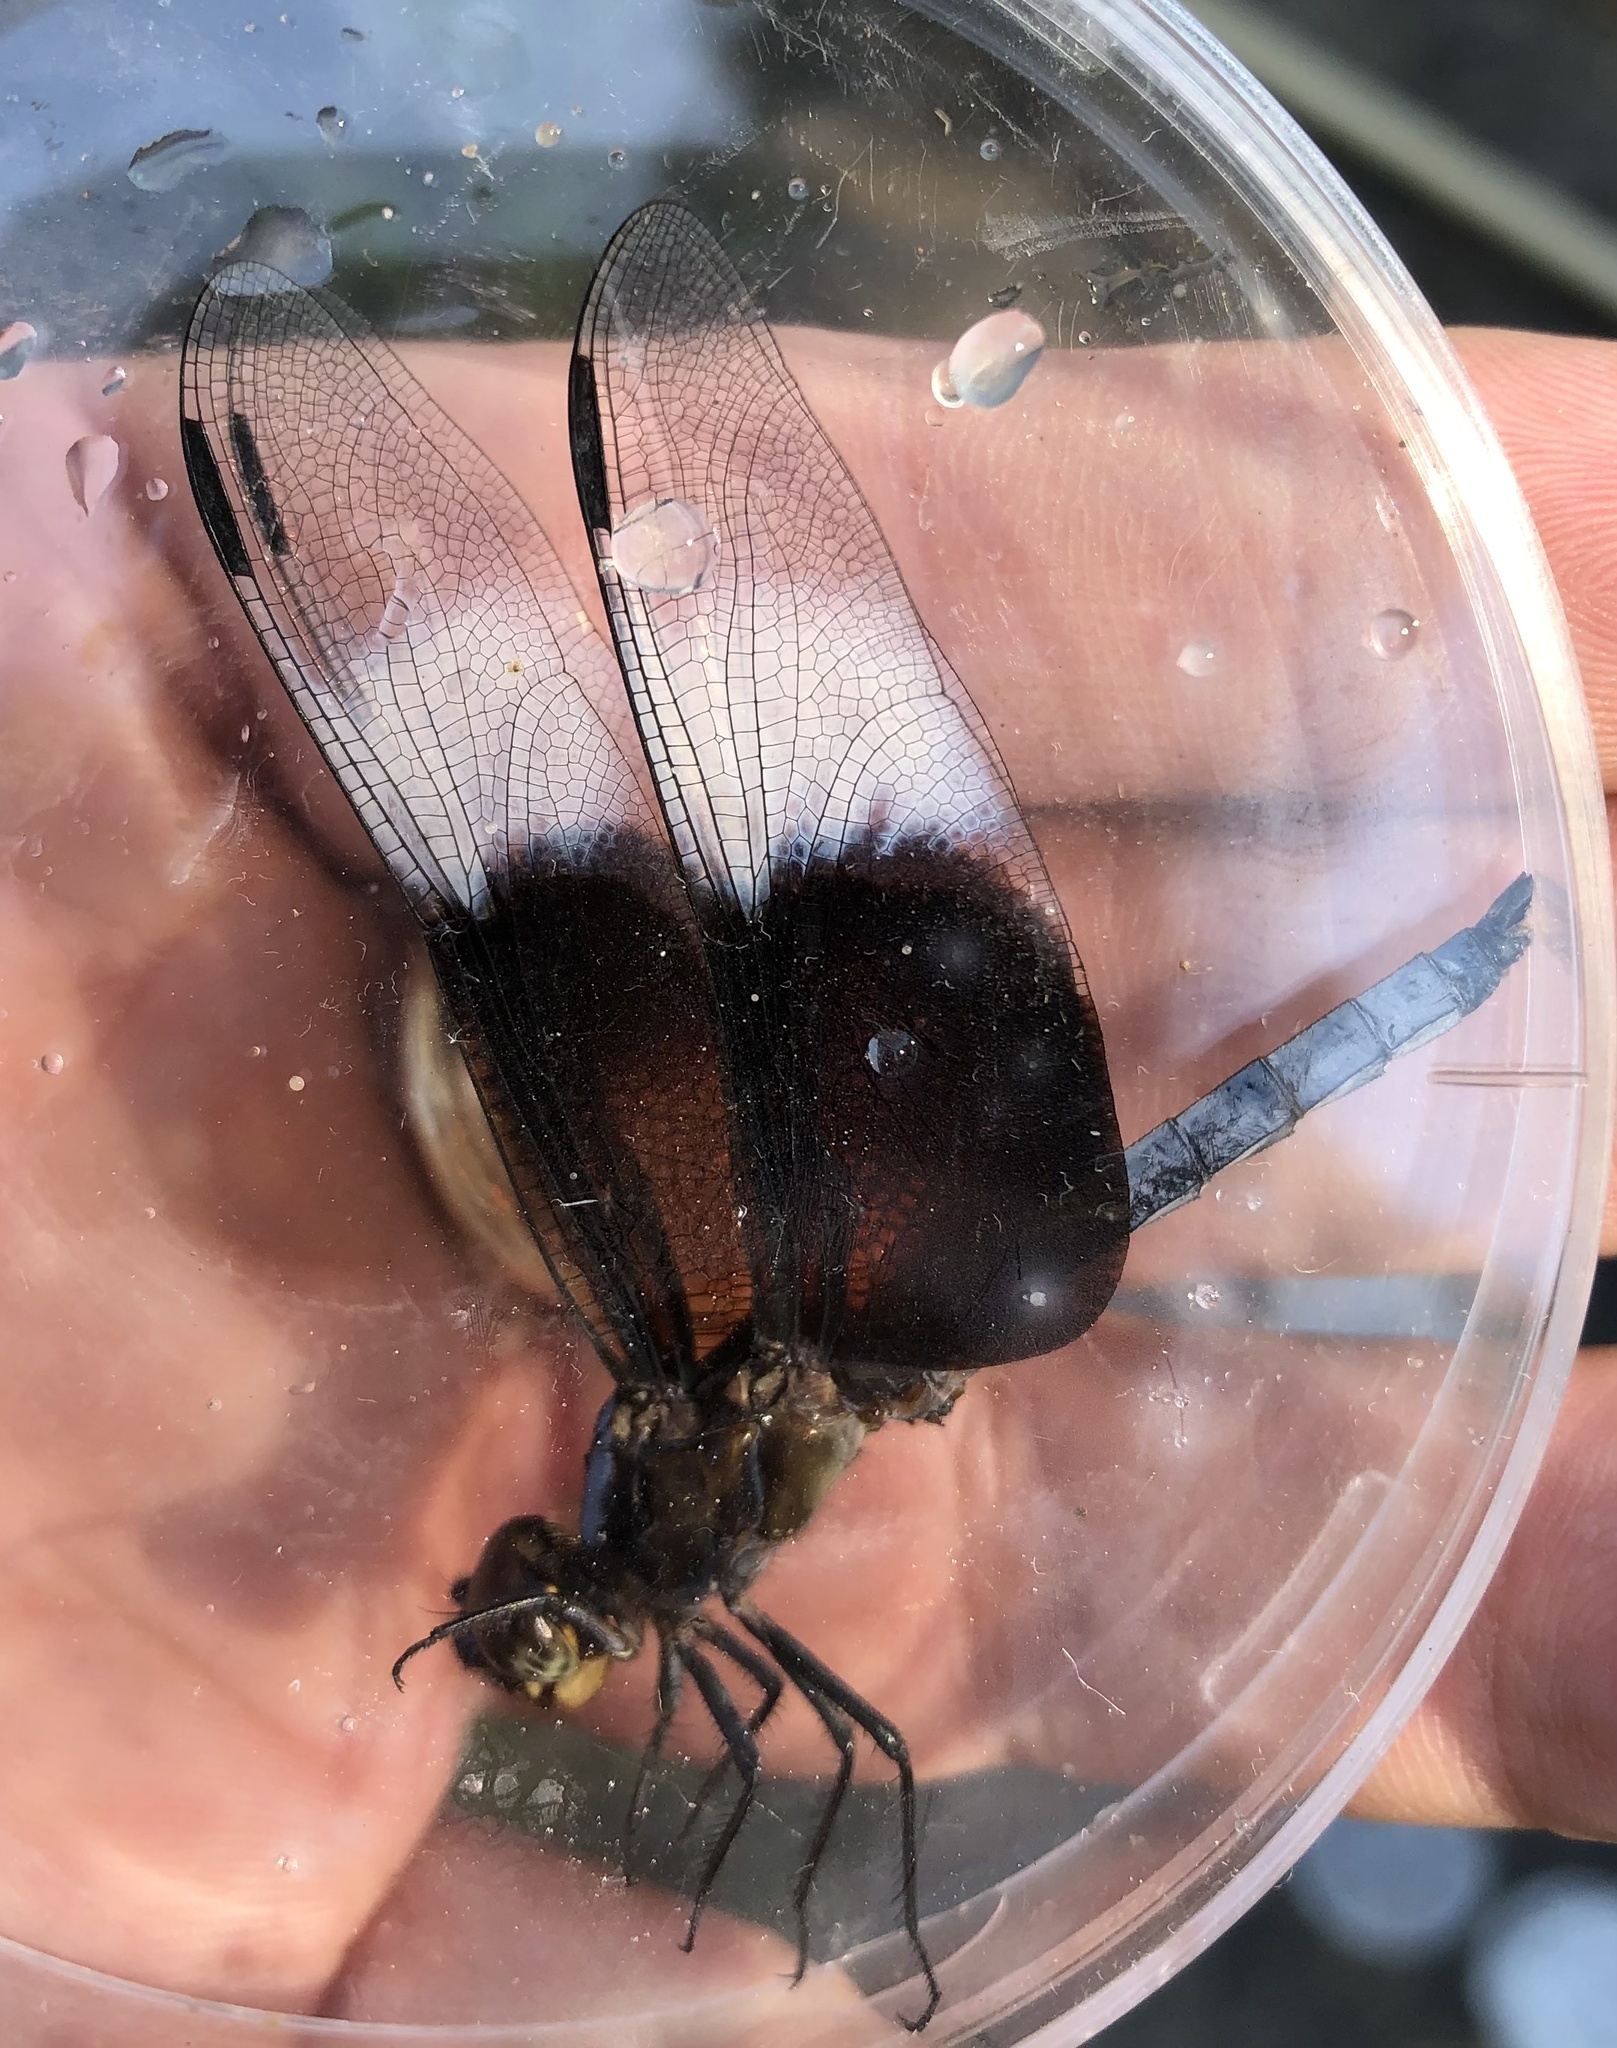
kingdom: Animalia
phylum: Arthropoda
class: Insecta
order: Odonata
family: Libellulidae
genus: Libellula
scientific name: Libellula luctuosa
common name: Widow skimmer
